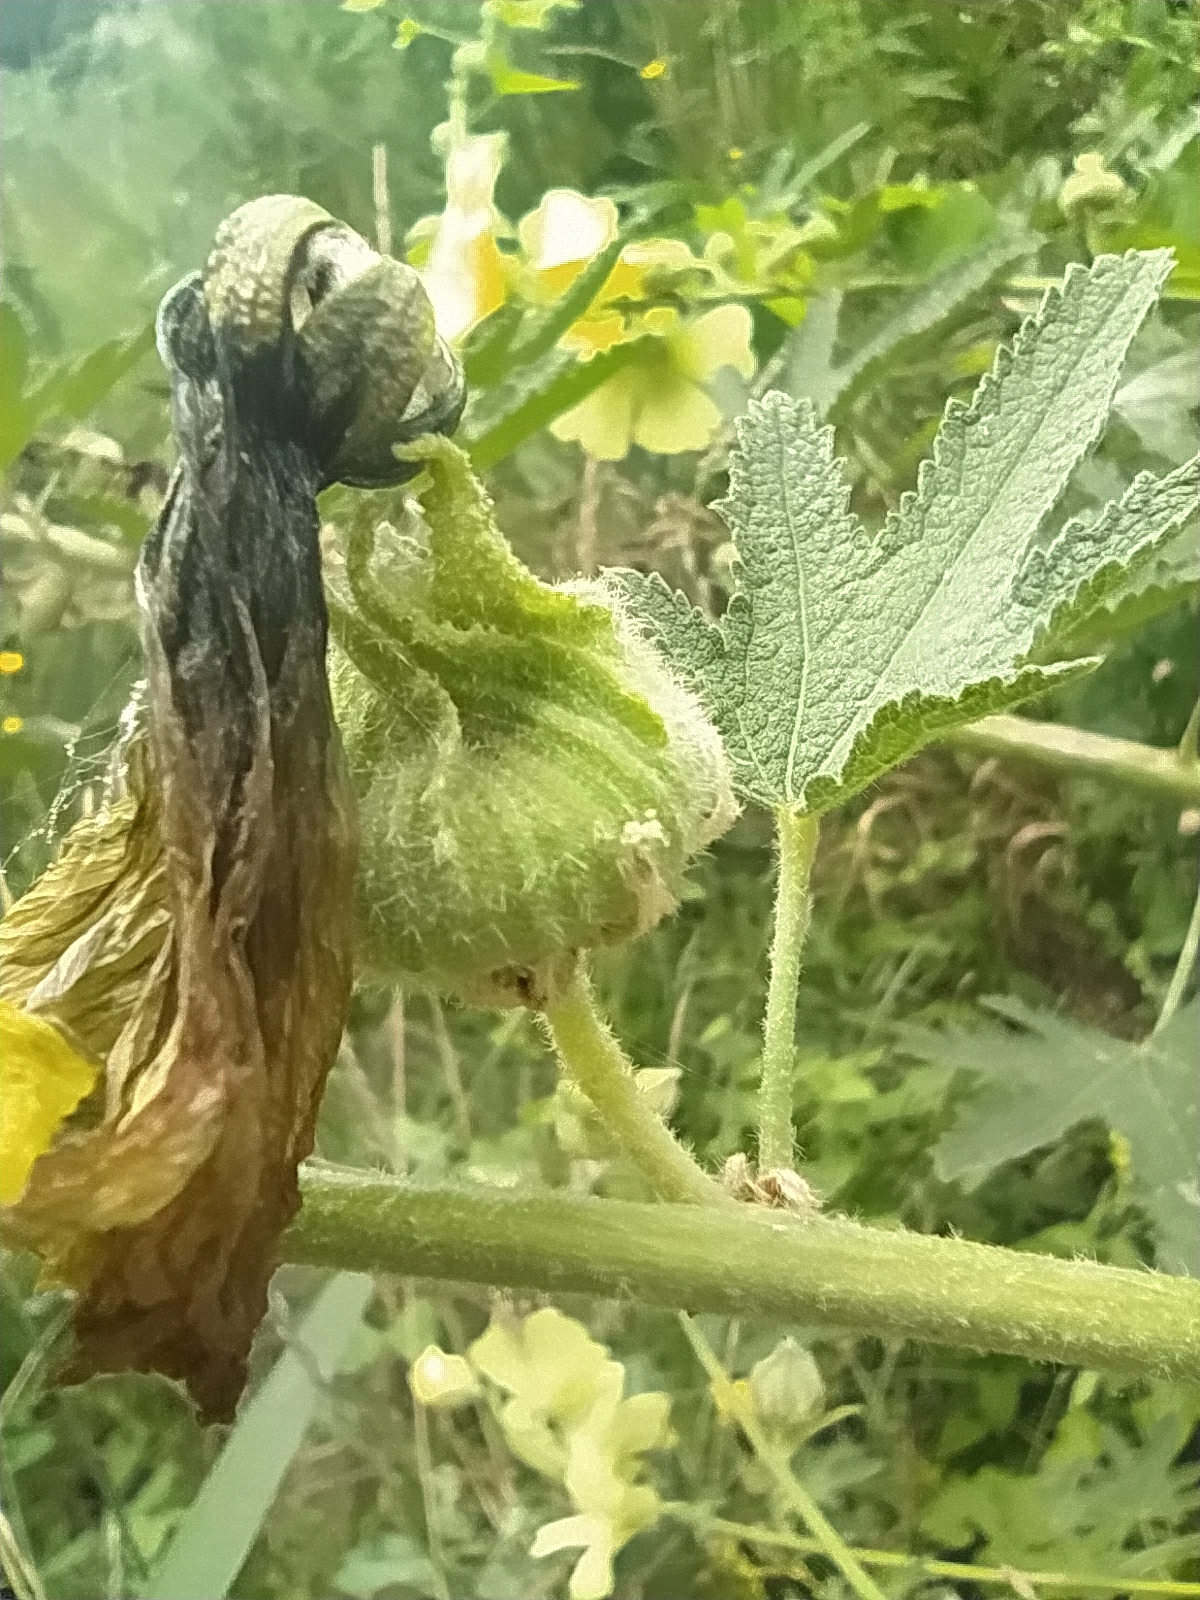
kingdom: Plantae
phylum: Tracheophyta
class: Magnoliopsida
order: Malvales
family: Malvaceae
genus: Alcea
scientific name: Alcea rugosa
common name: Russian hollyhock
